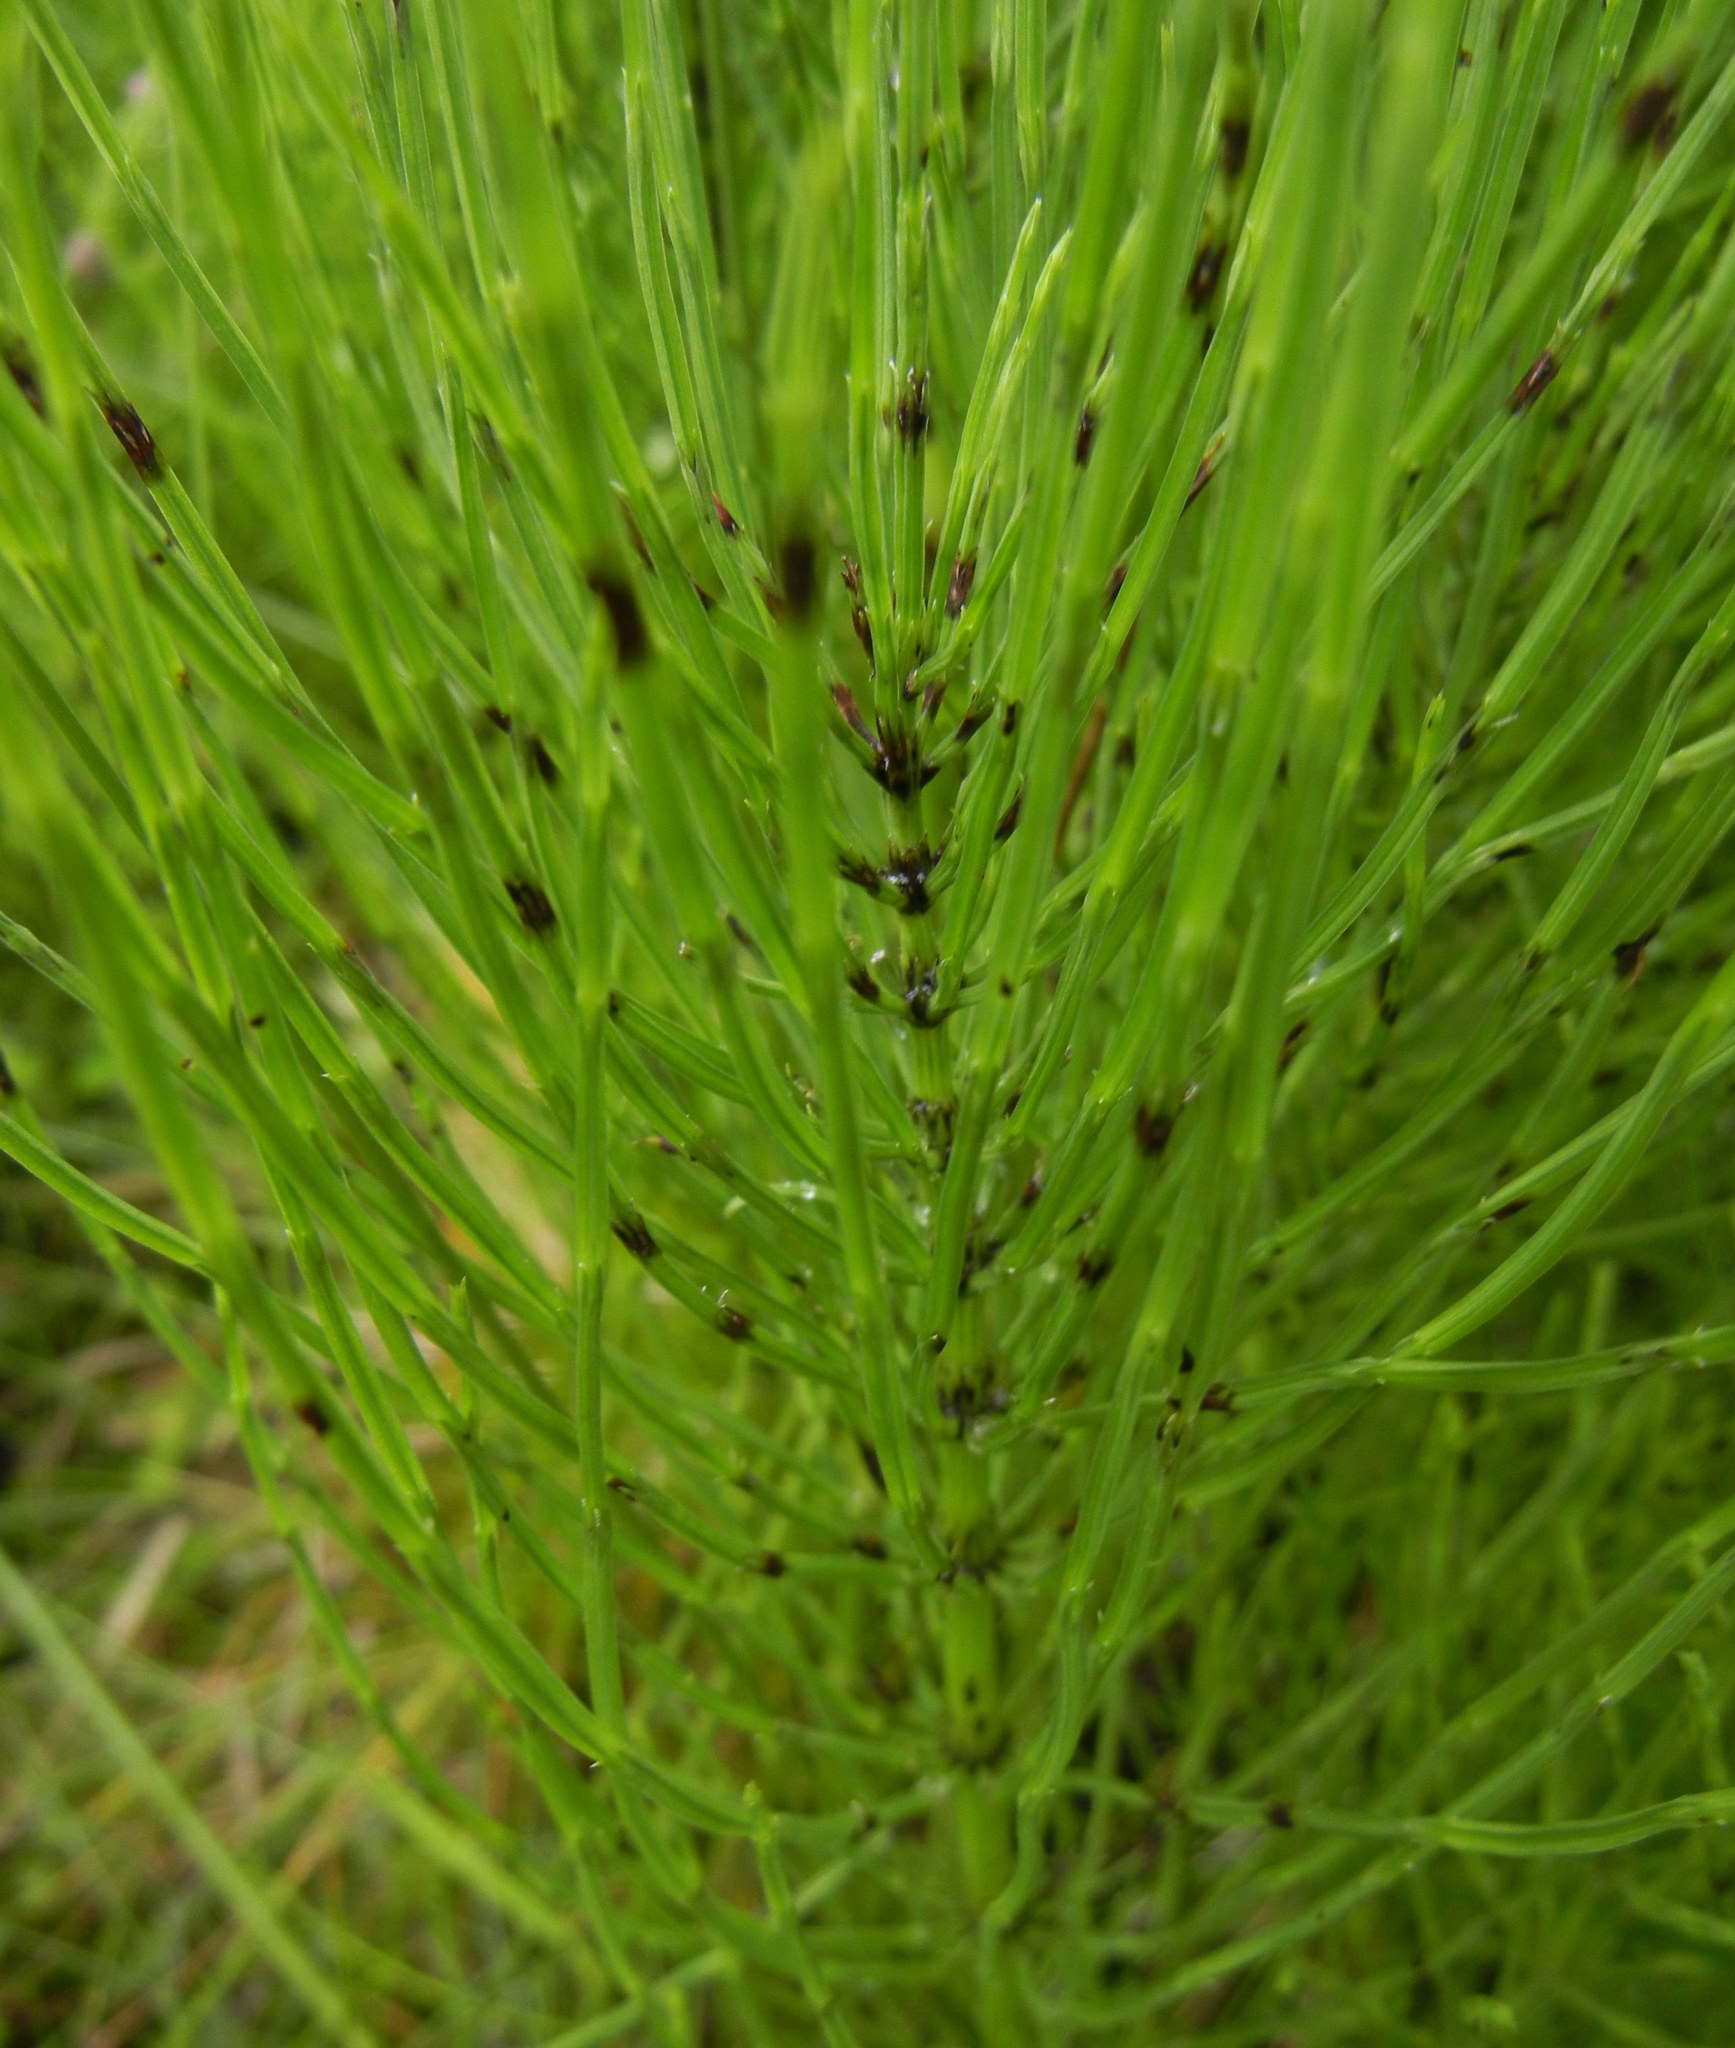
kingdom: Plantae
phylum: Tracheophyta
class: Polypodiopsida
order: Equisetales
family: Equisetaceae
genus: Equisetum
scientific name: Equisetum arvense
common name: Field horsetail
